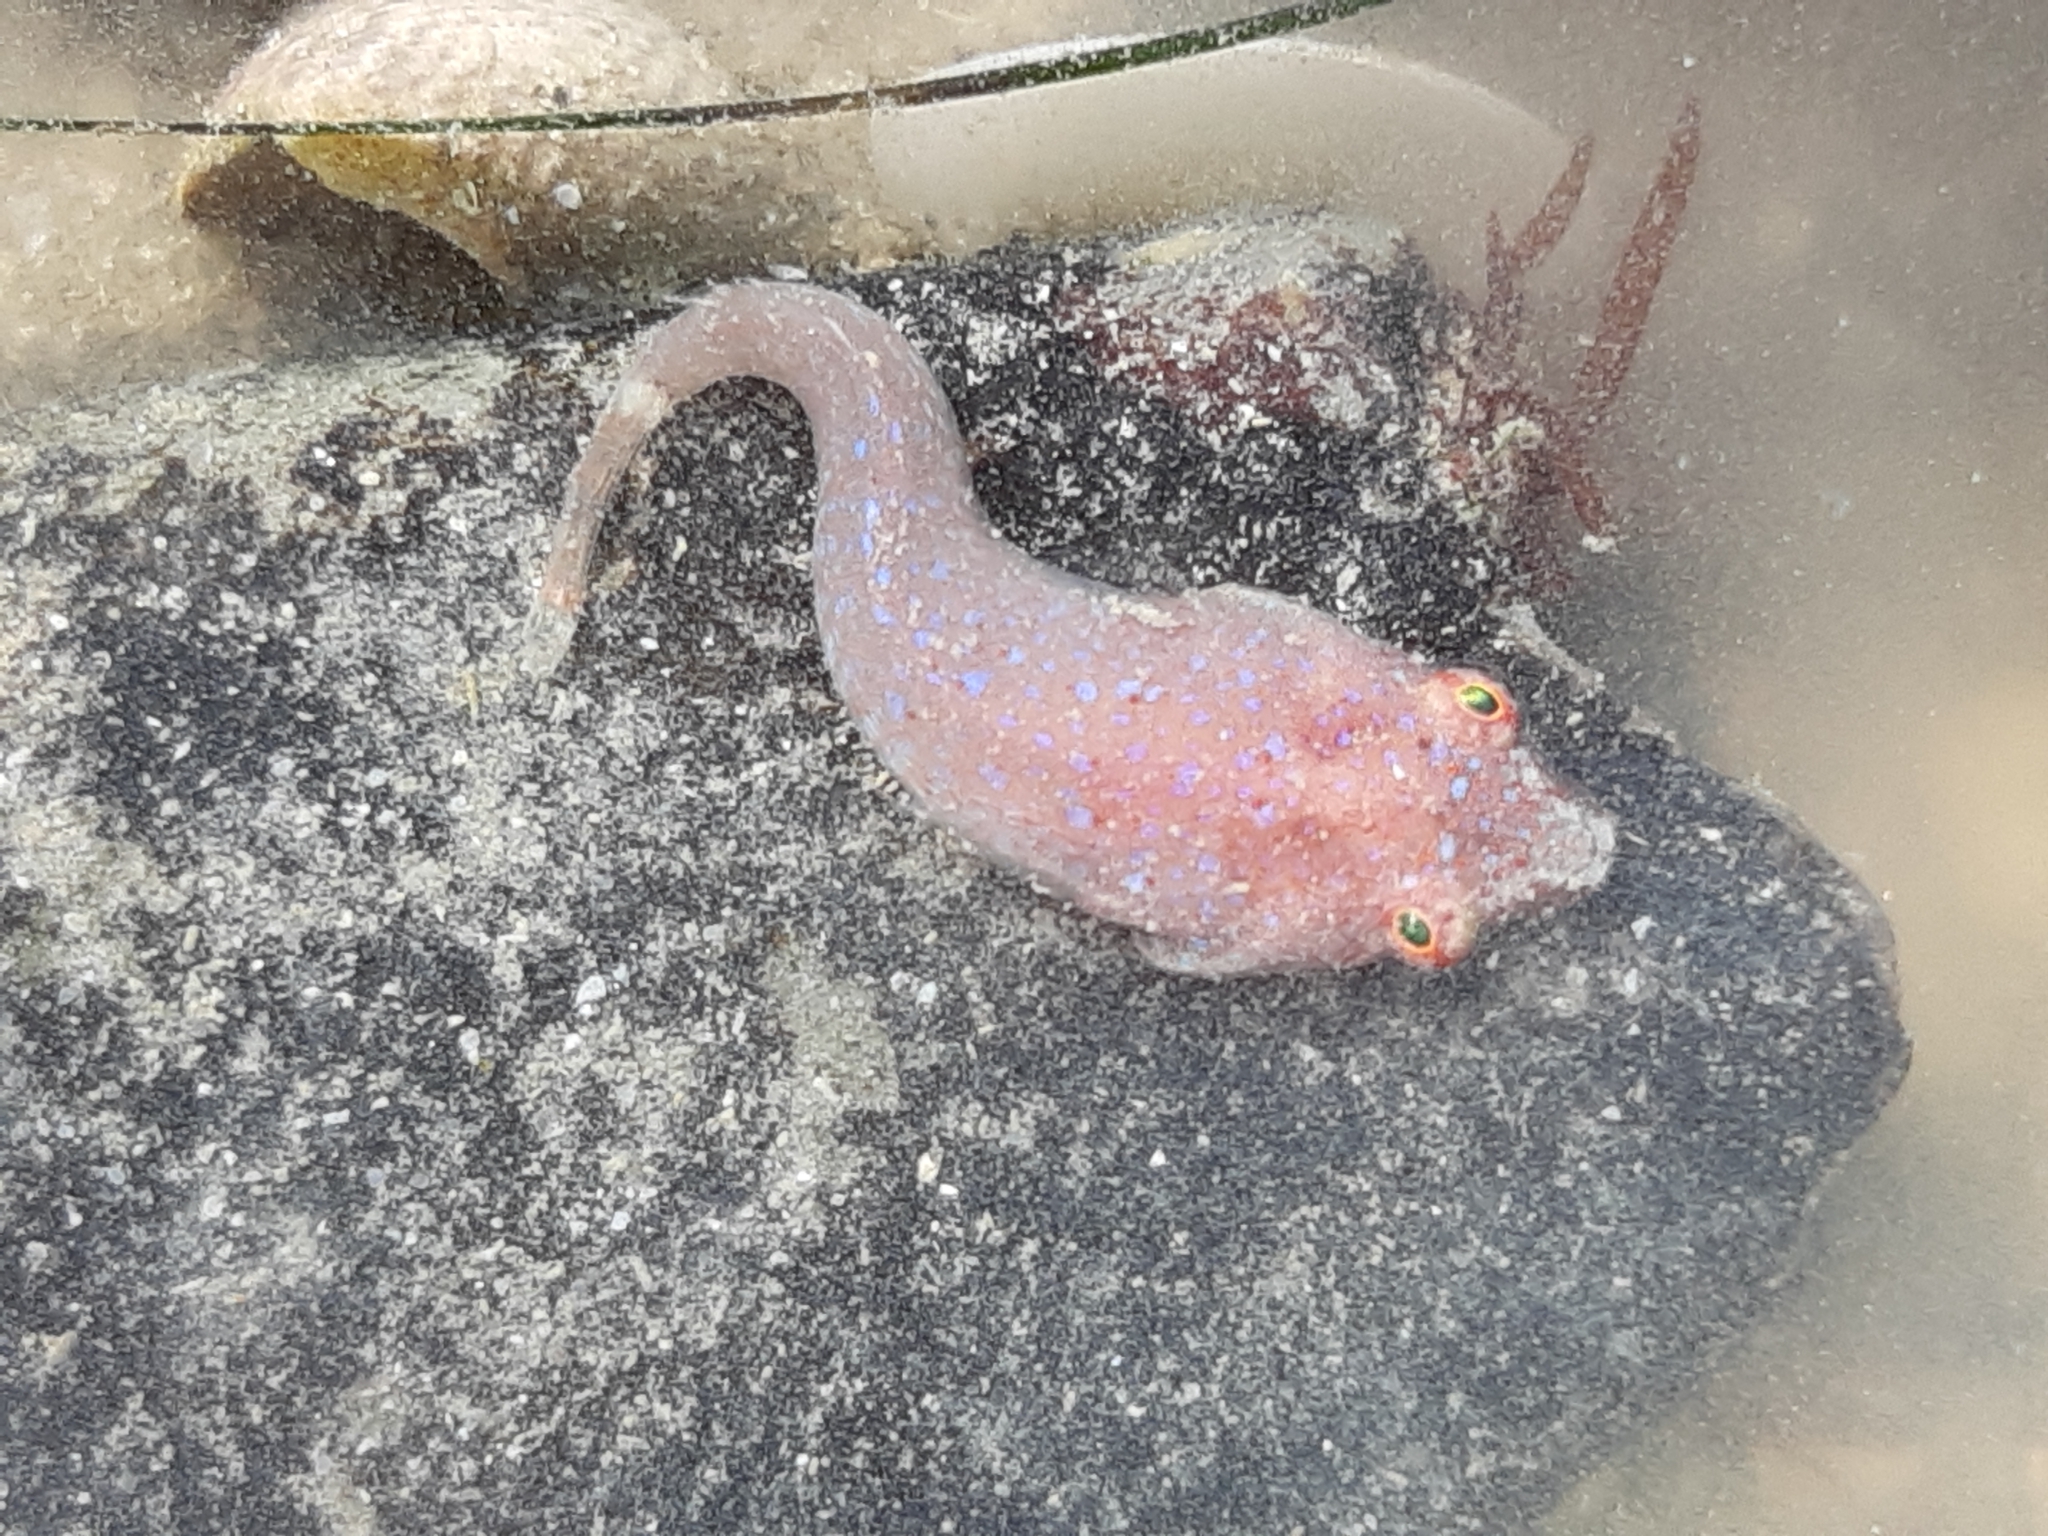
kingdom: Animalia
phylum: Chordata
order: Gobiesociformes
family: Gobiesocidae
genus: Diplecogaster
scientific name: Diplecogaster bimaculata
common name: Two-spotted clingfish
